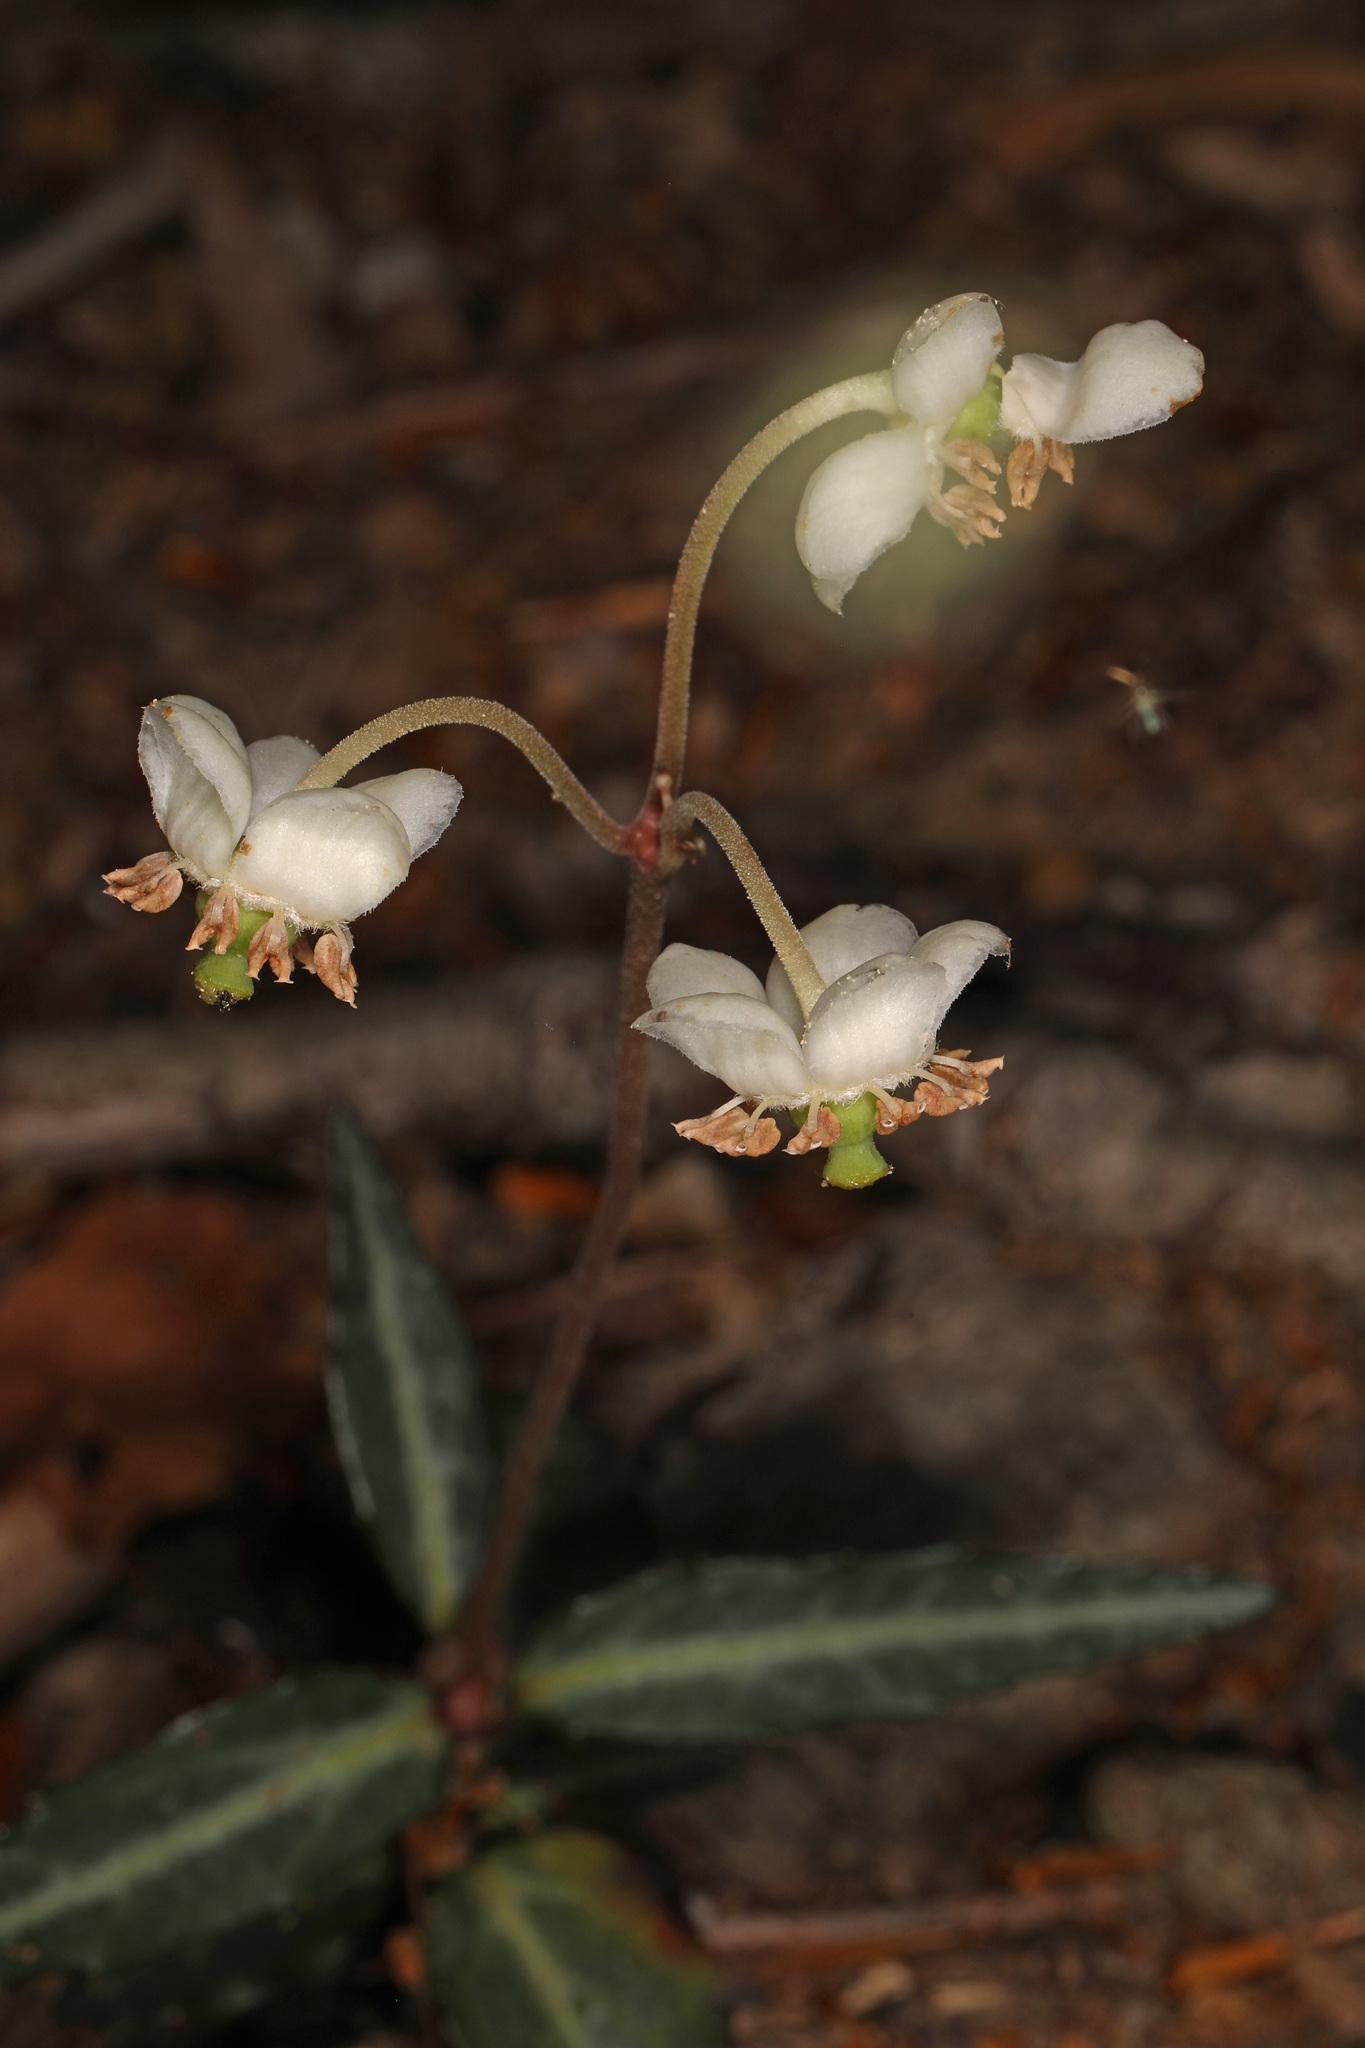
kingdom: Plantae
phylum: Tracheophyta
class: Magnoliopsida
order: Ericales
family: Ericaceae
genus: Chimaphila
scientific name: Chimaphila maculata
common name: Spotted pipsissewa
